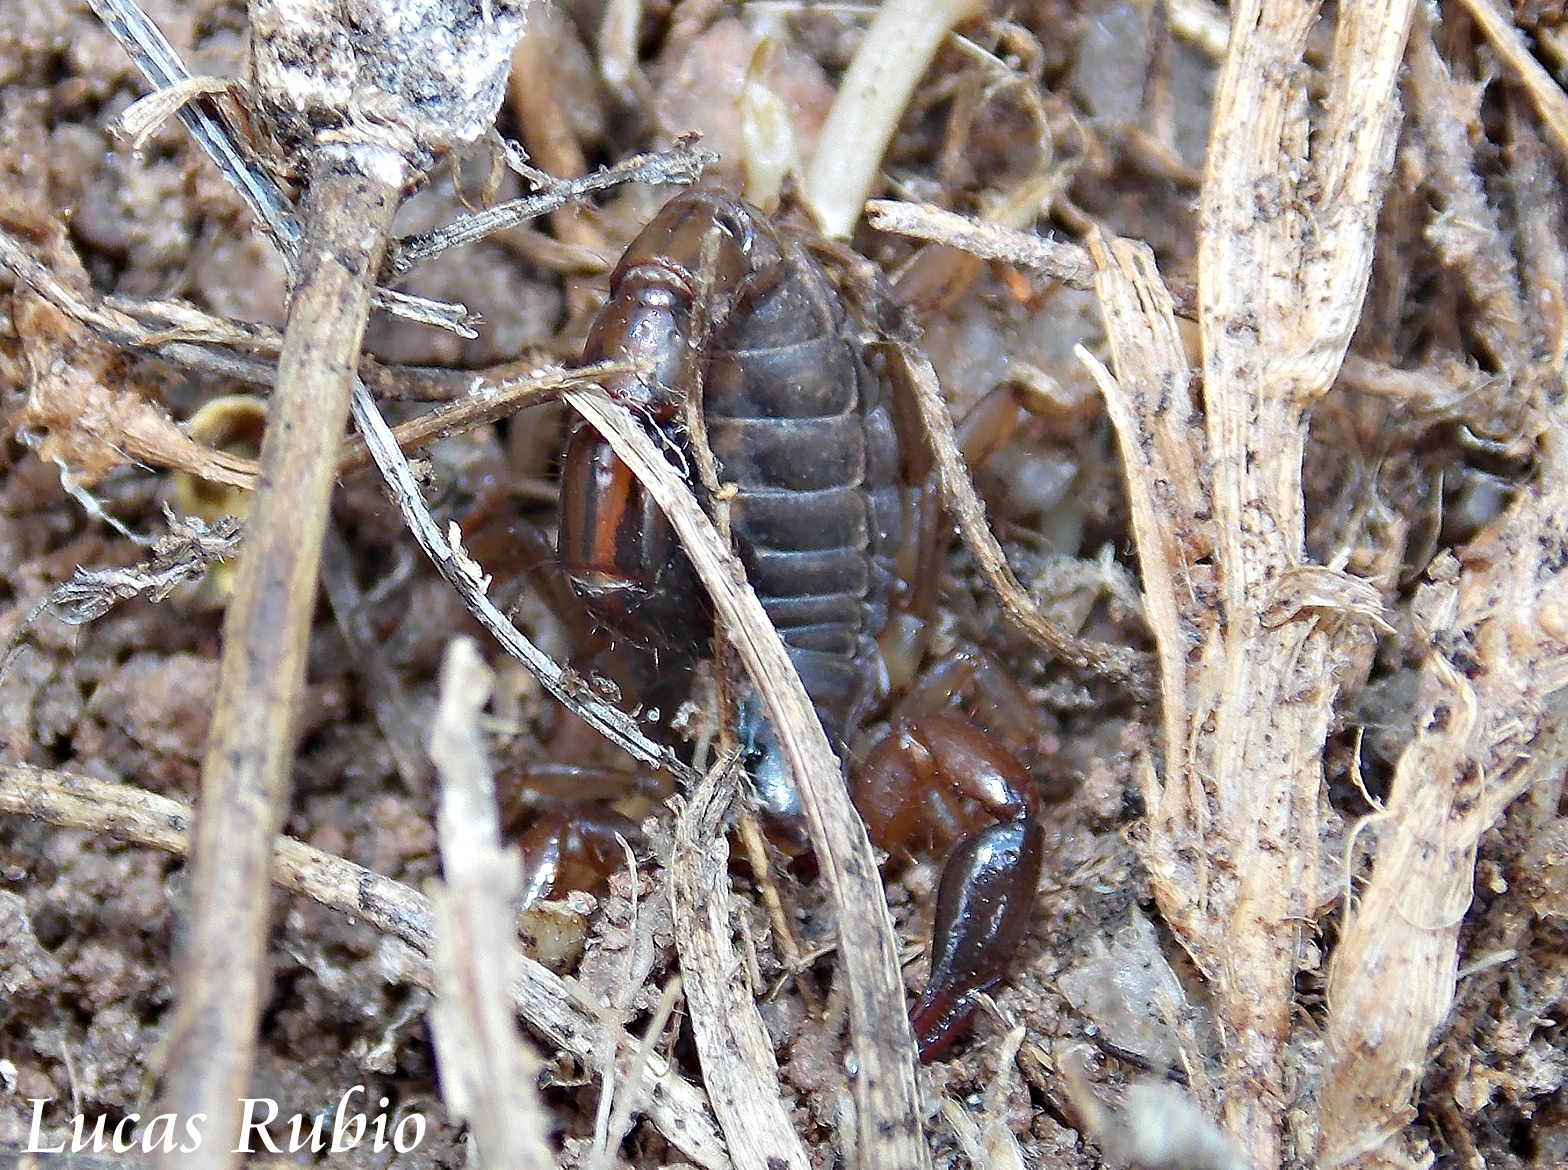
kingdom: Animalia
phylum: Arthropoda
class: Arachnida
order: Scorpiones
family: Bothriuridae
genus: Bothriurus
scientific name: Bothriurus cordubensis
